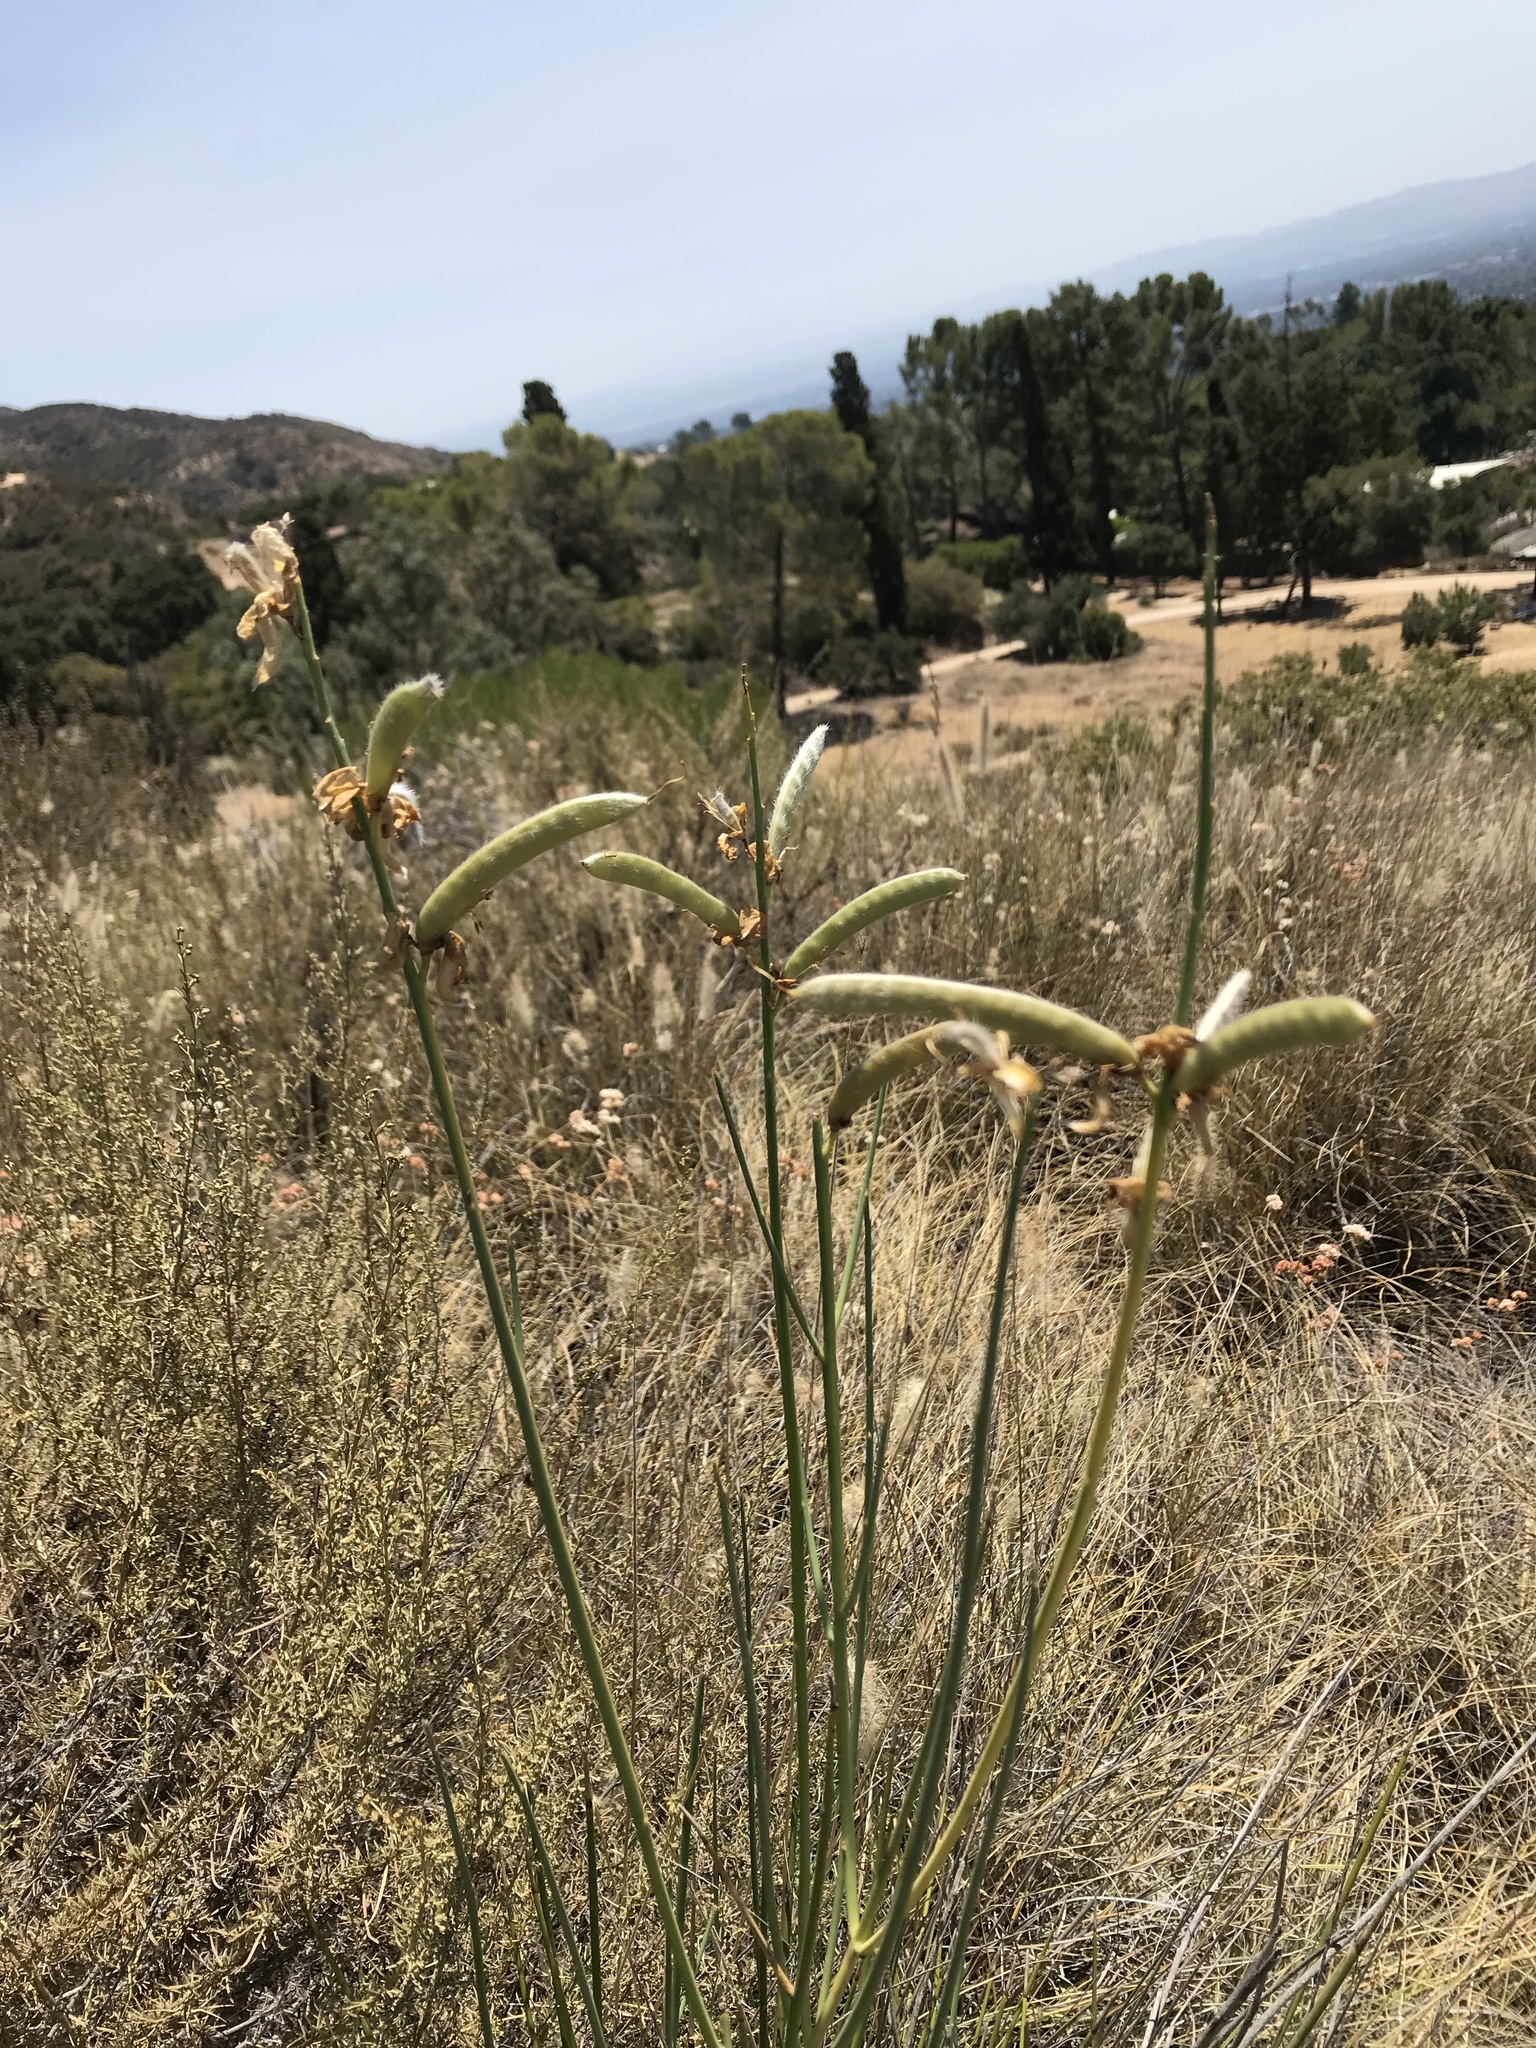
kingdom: Plantae
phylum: Tracheophyta
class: Magnoliopsida
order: Fabales
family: Fabaceae
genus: Spartium
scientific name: Spartium junceum
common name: Spanish broom
